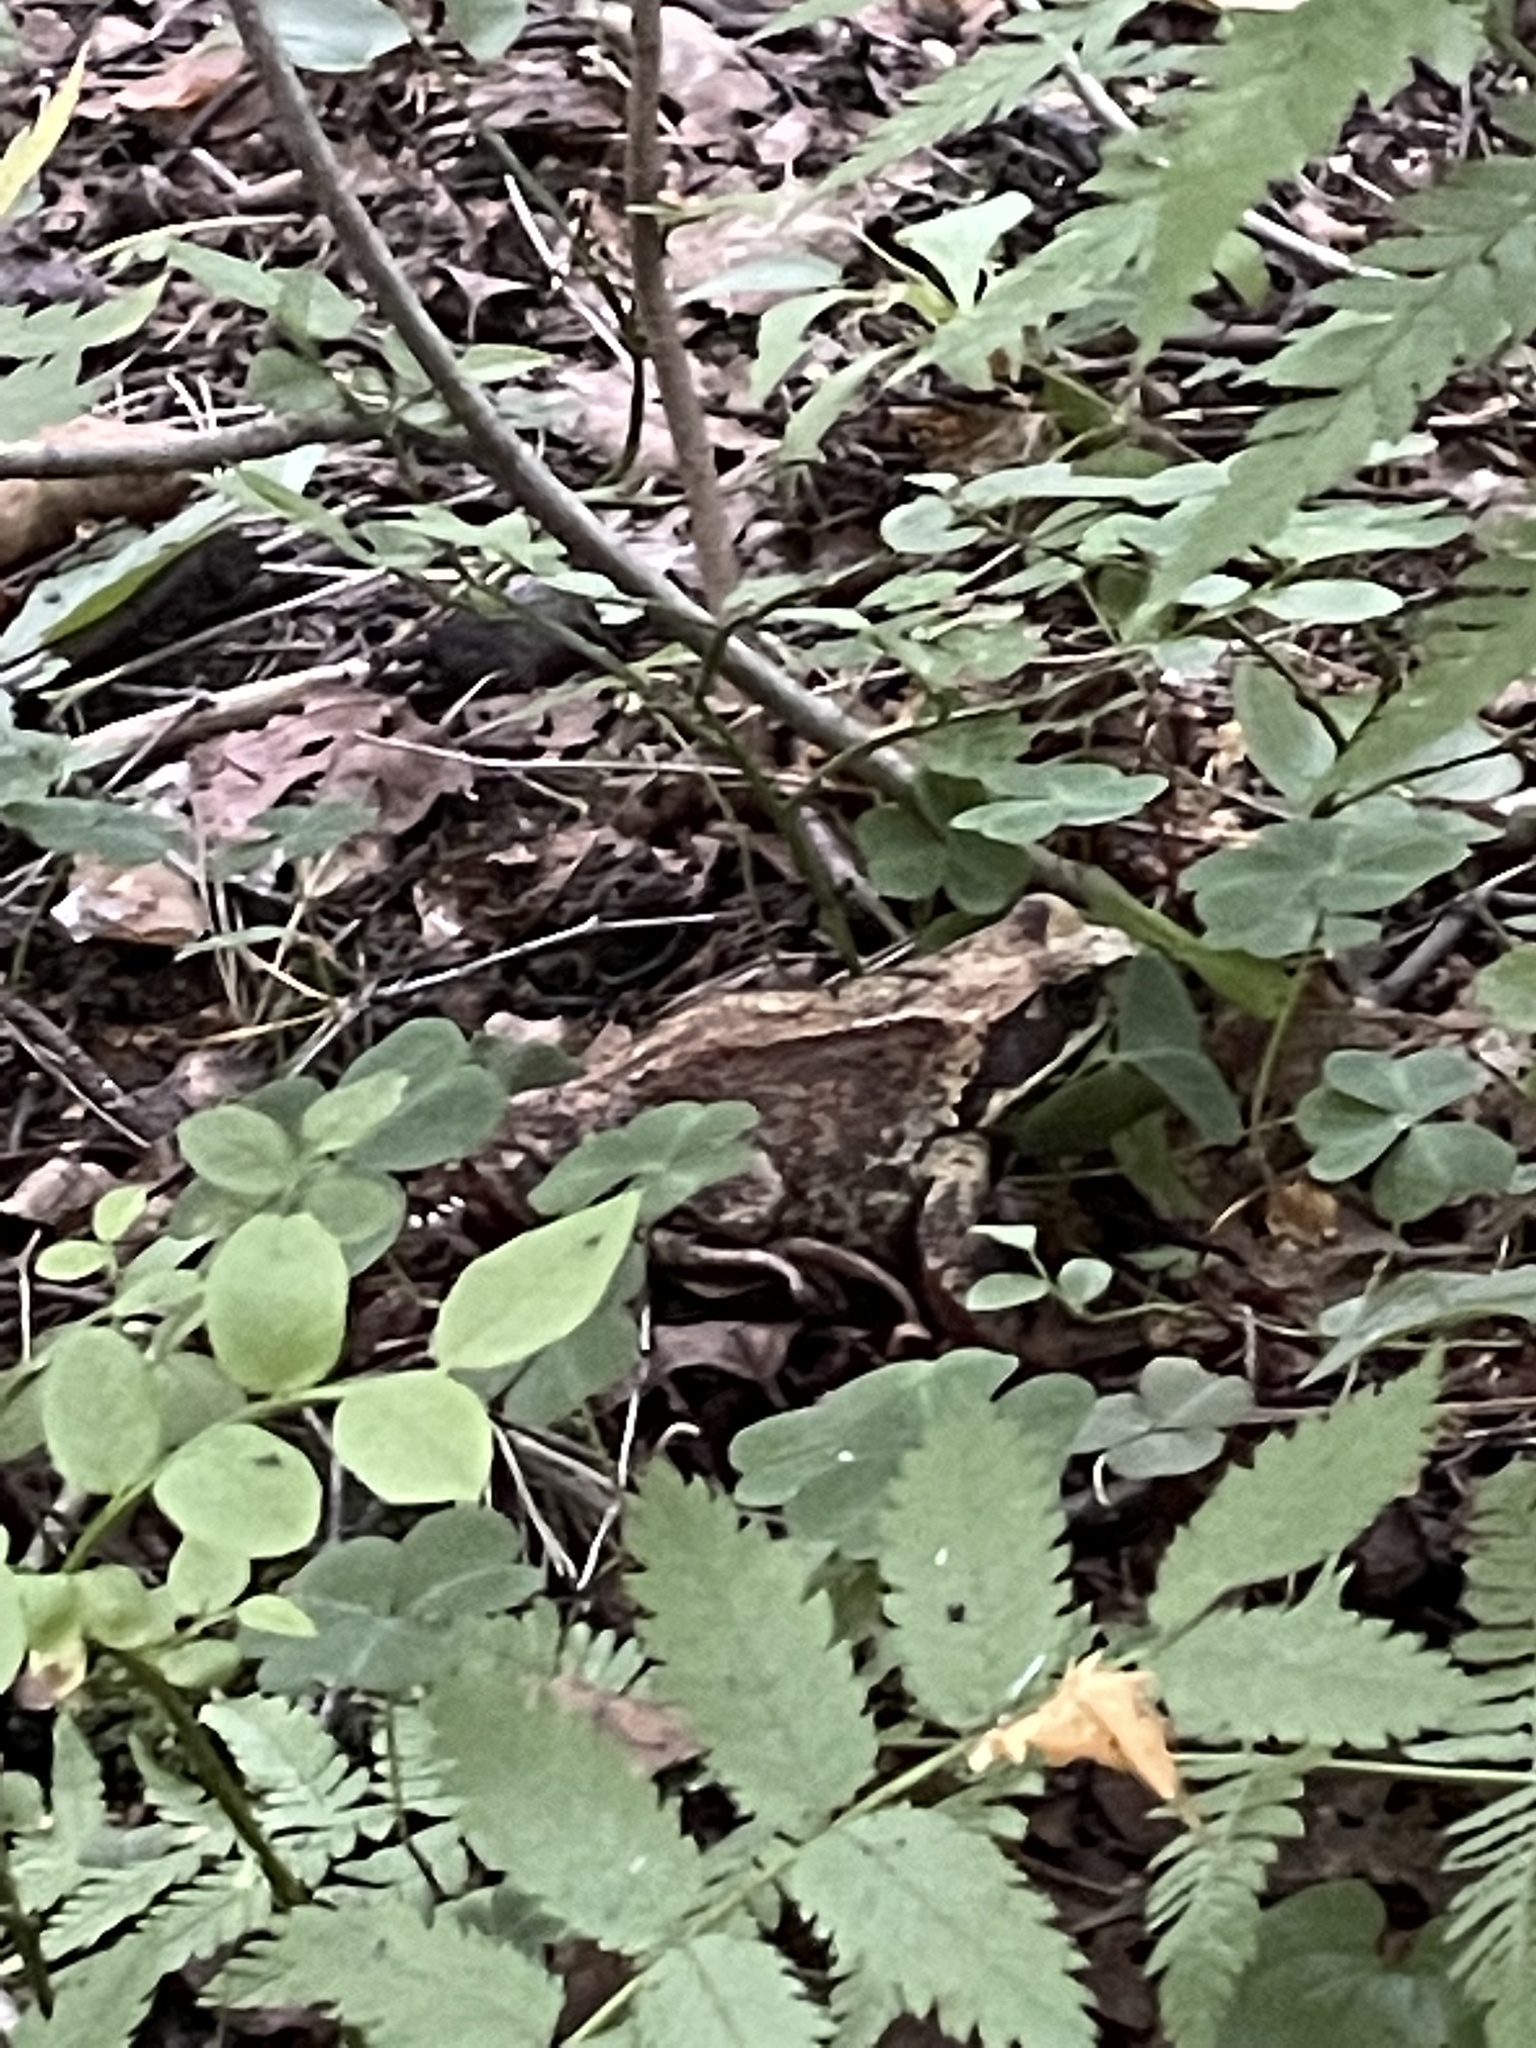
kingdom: Animalia
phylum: Chordata
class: Amphibia
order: Anura
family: Ranidae
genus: Rana
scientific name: Rana temporaria
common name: Common frog
